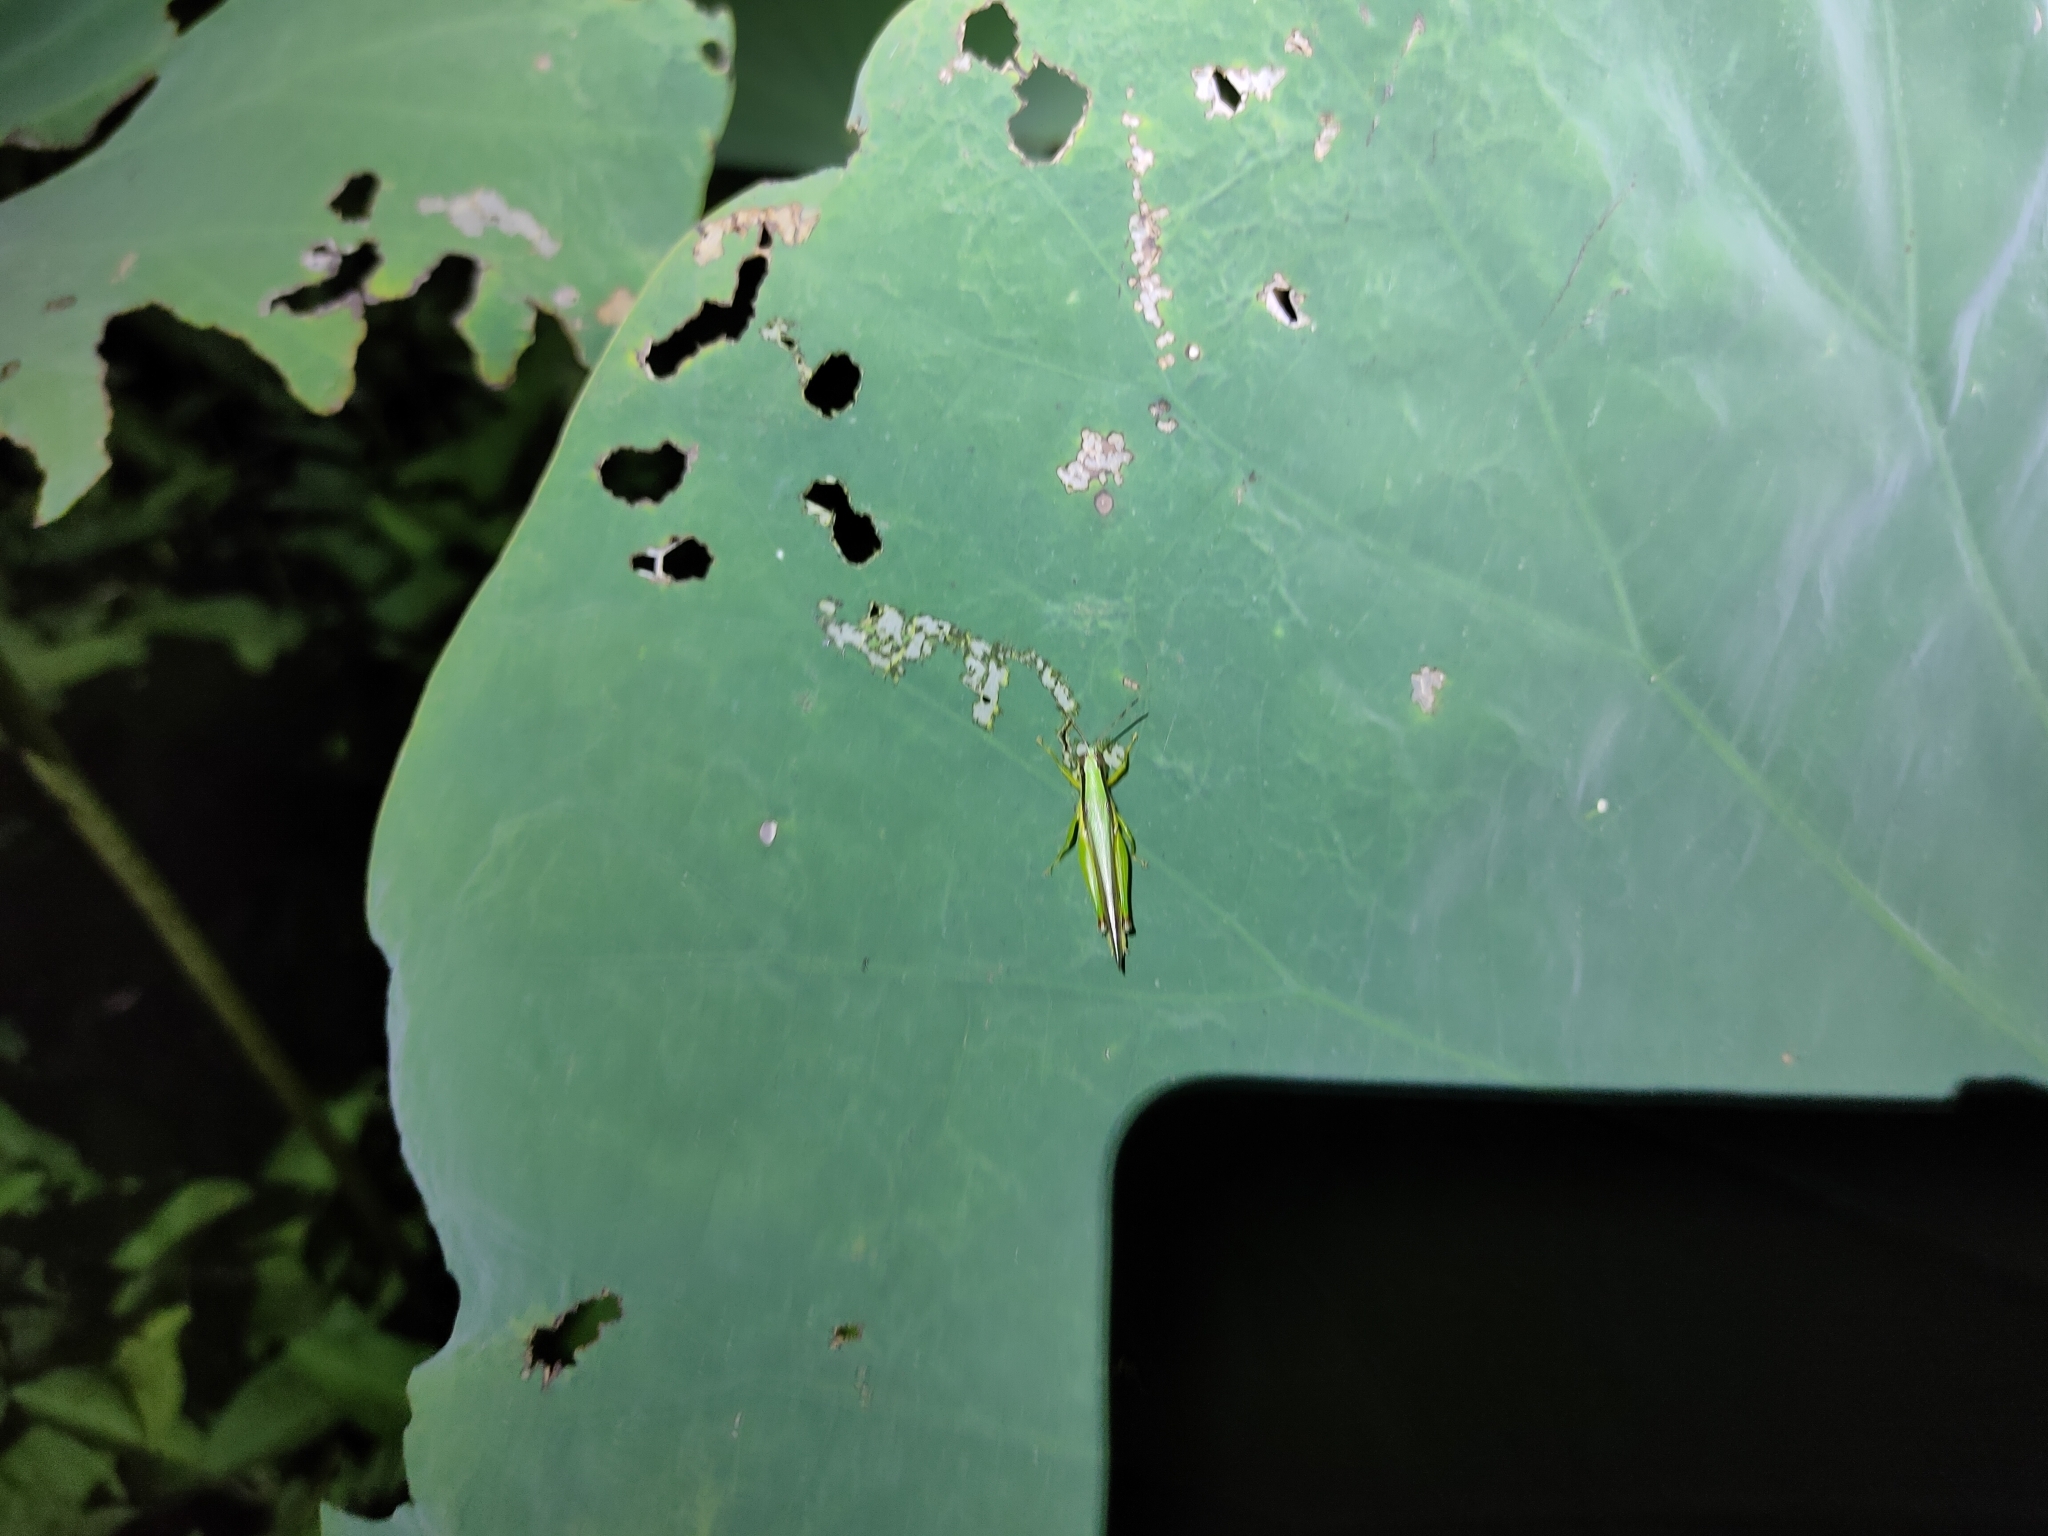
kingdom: Animalia
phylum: Arthropoda
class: Insecta
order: Orthoptera
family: Acrididae
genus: Gesonula
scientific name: Gesonula mundata
